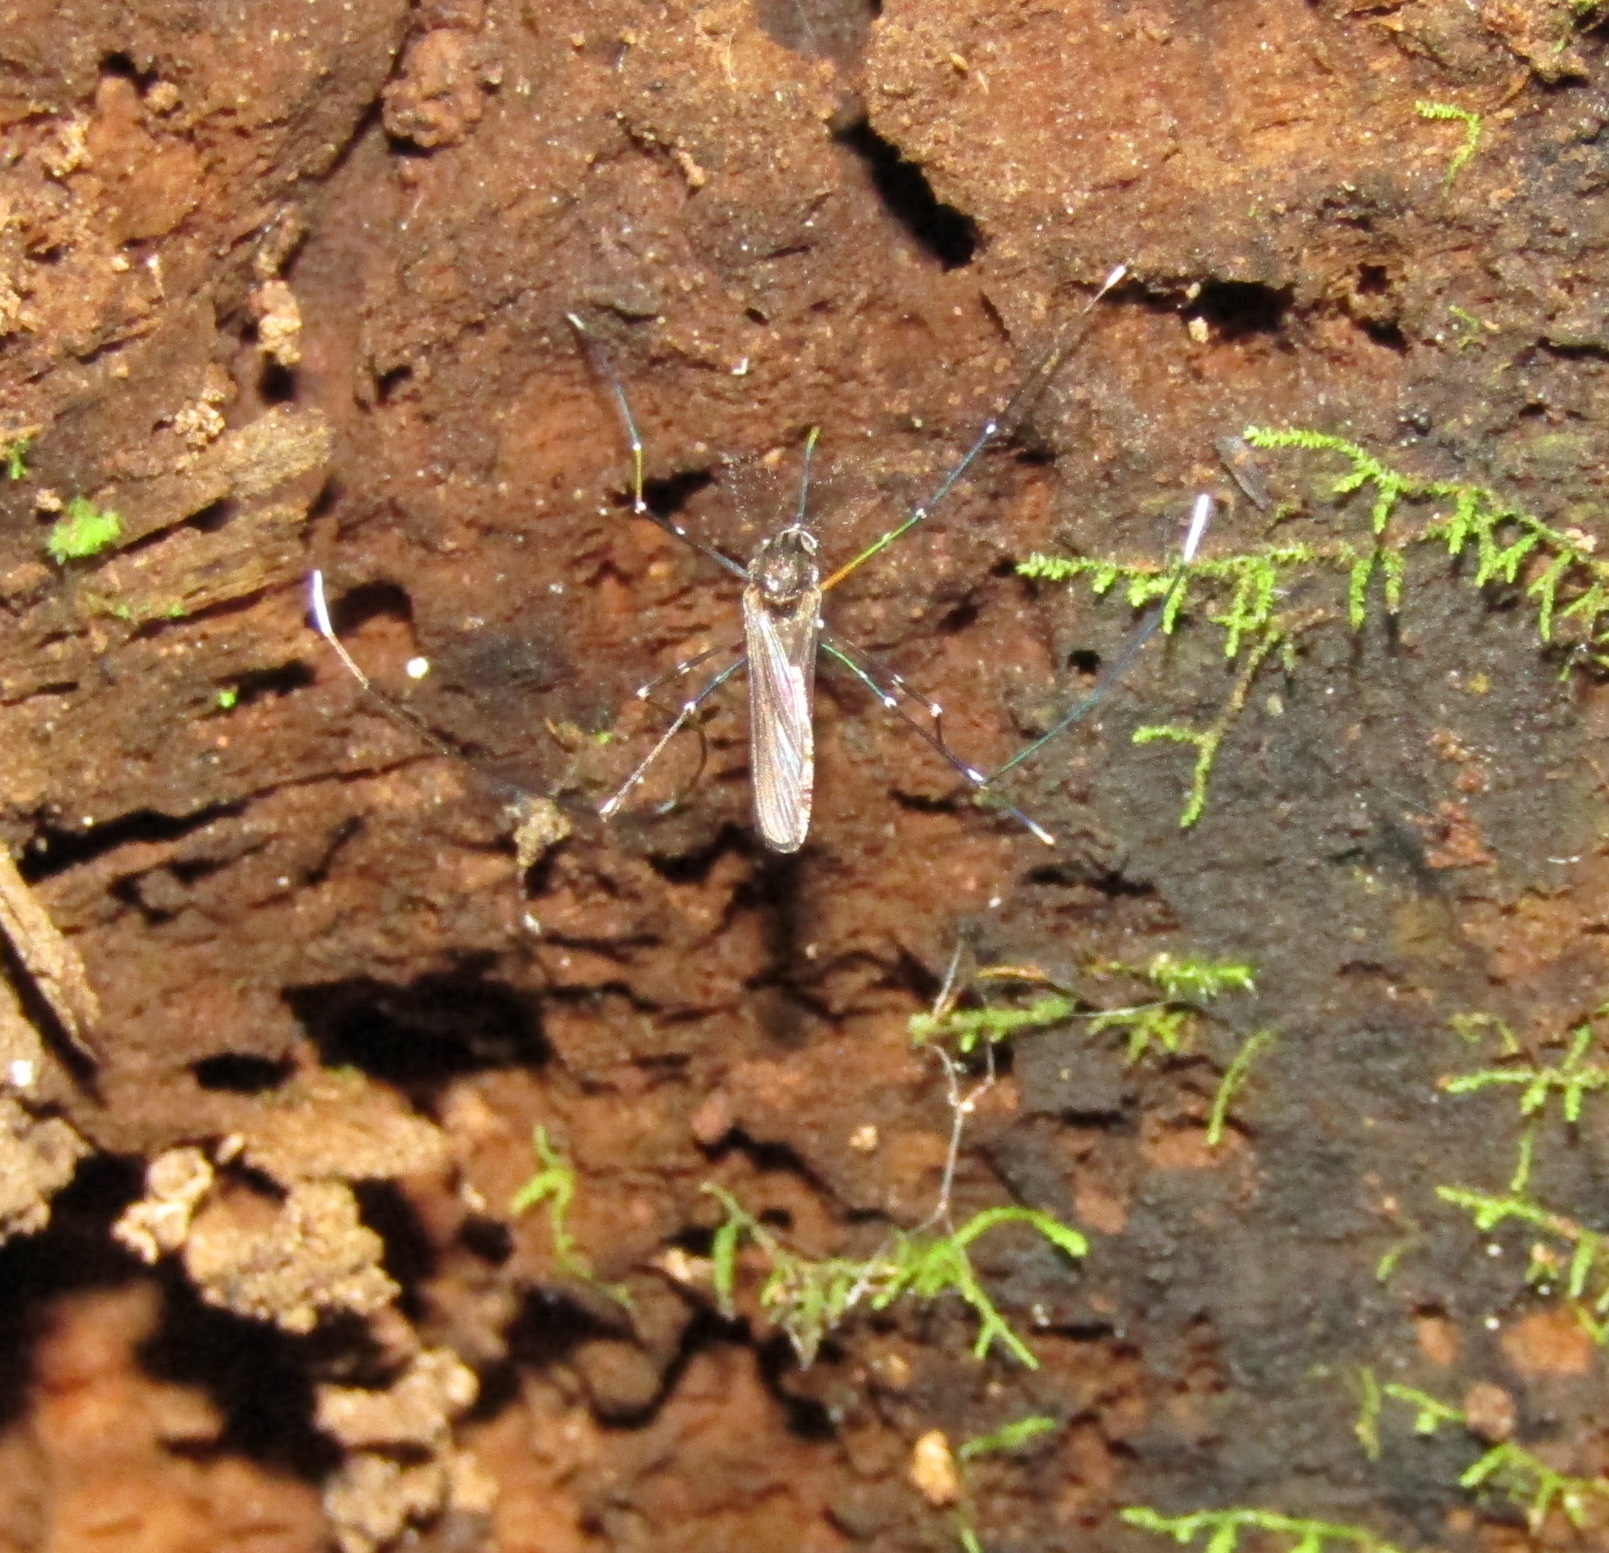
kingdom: Animalia
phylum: Arthropoda
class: Insecta
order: Diptera
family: Culicidae
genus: Maorigoeldia
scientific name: Maorigoeldia argyropus
